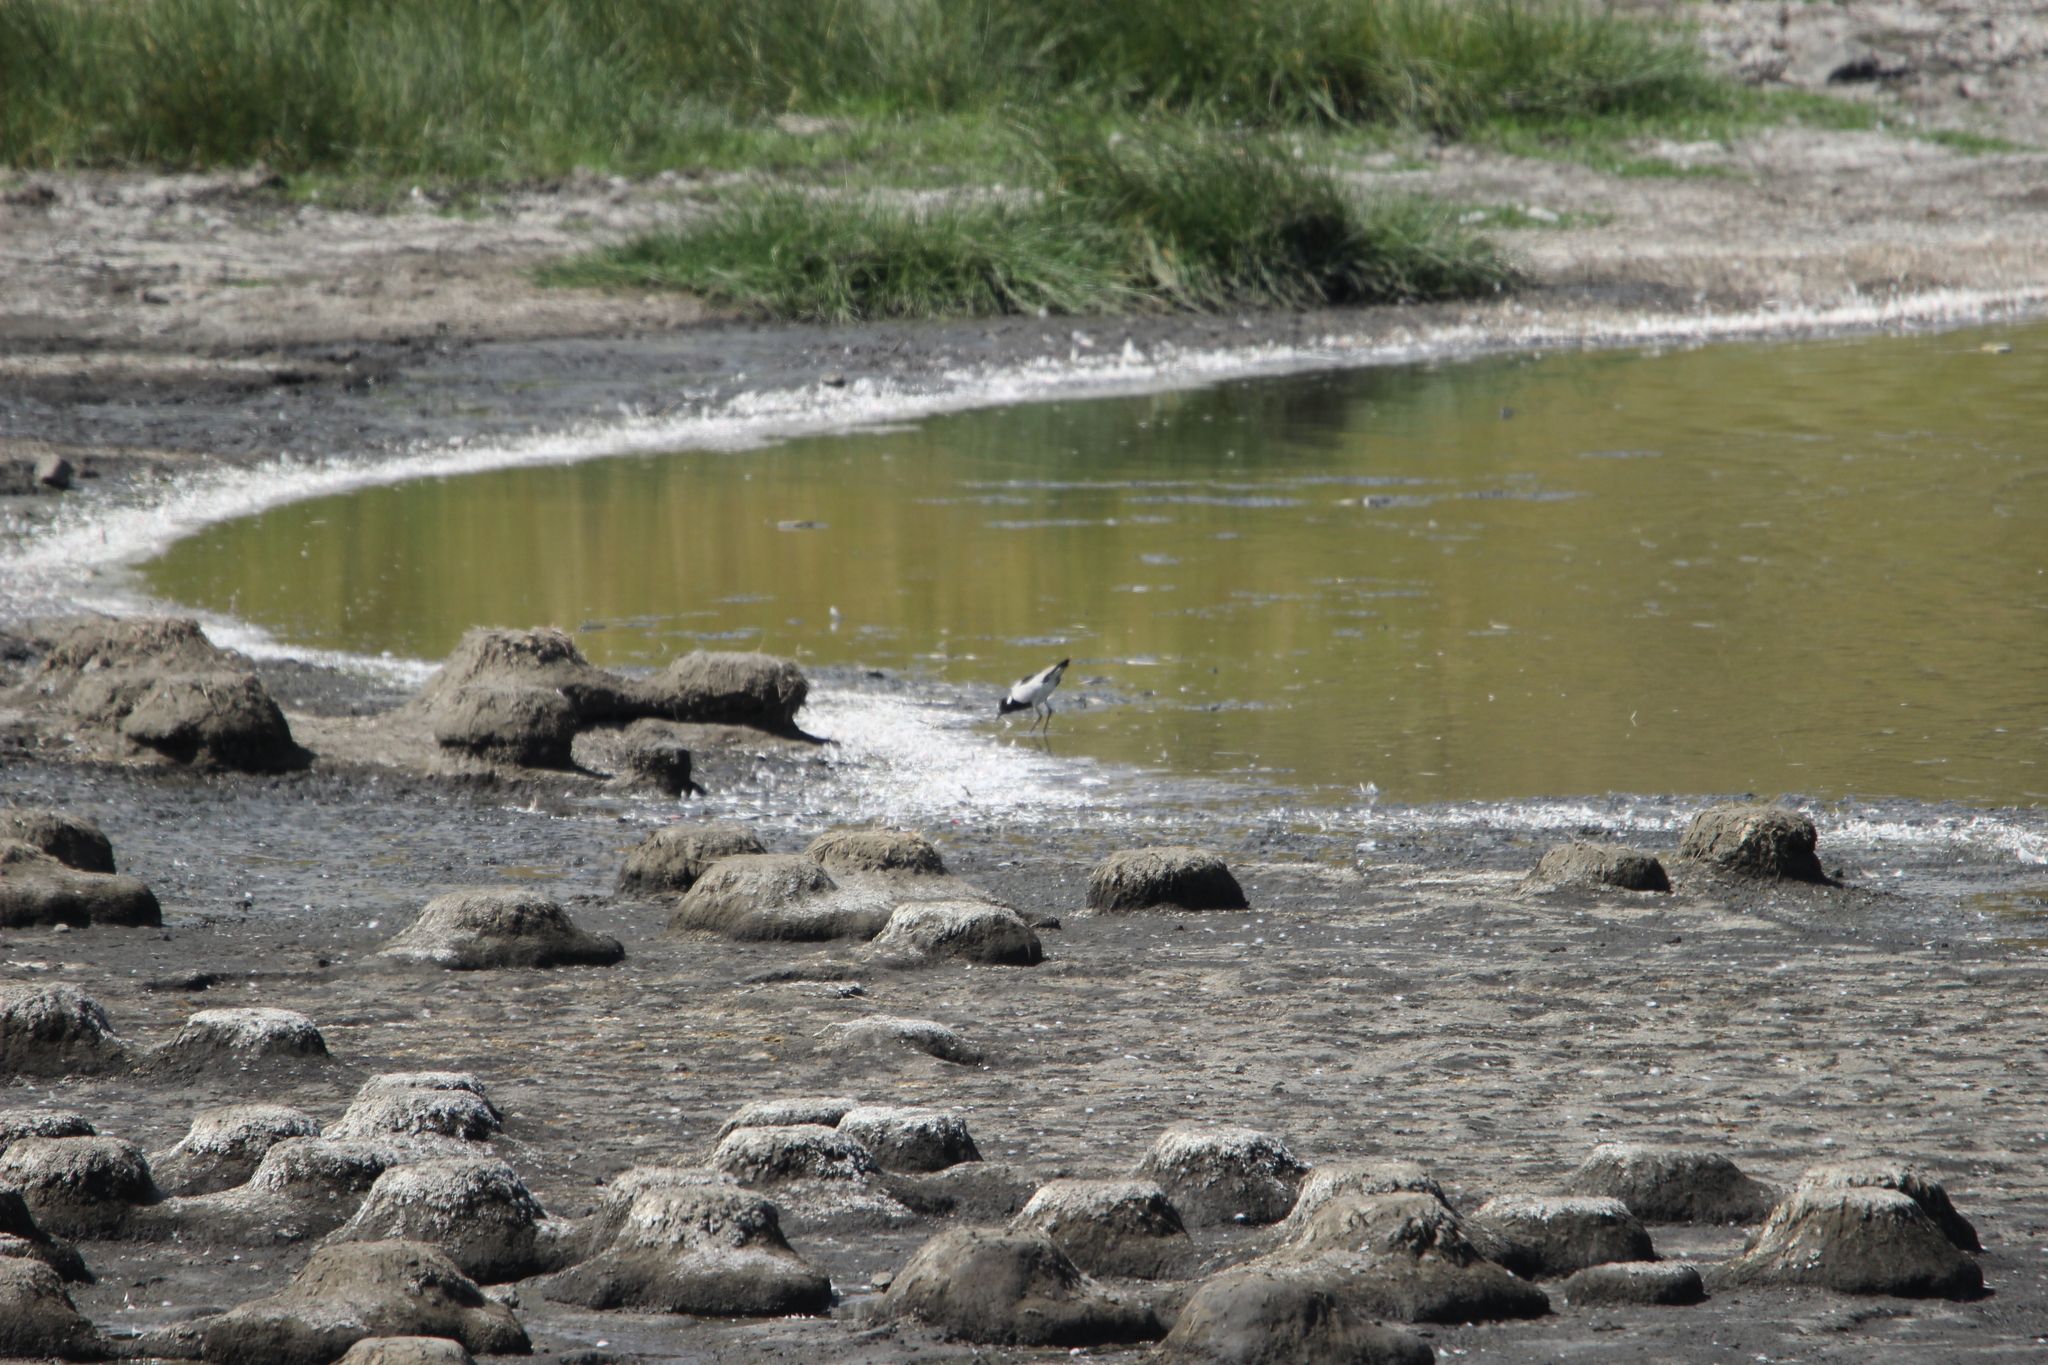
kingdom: Animalia
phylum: Chordata
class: Aves
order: Charadriiformes
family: Charadriidae
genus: Vanellus
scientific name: Vanellus armatus
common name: Blacksmith lapwing
